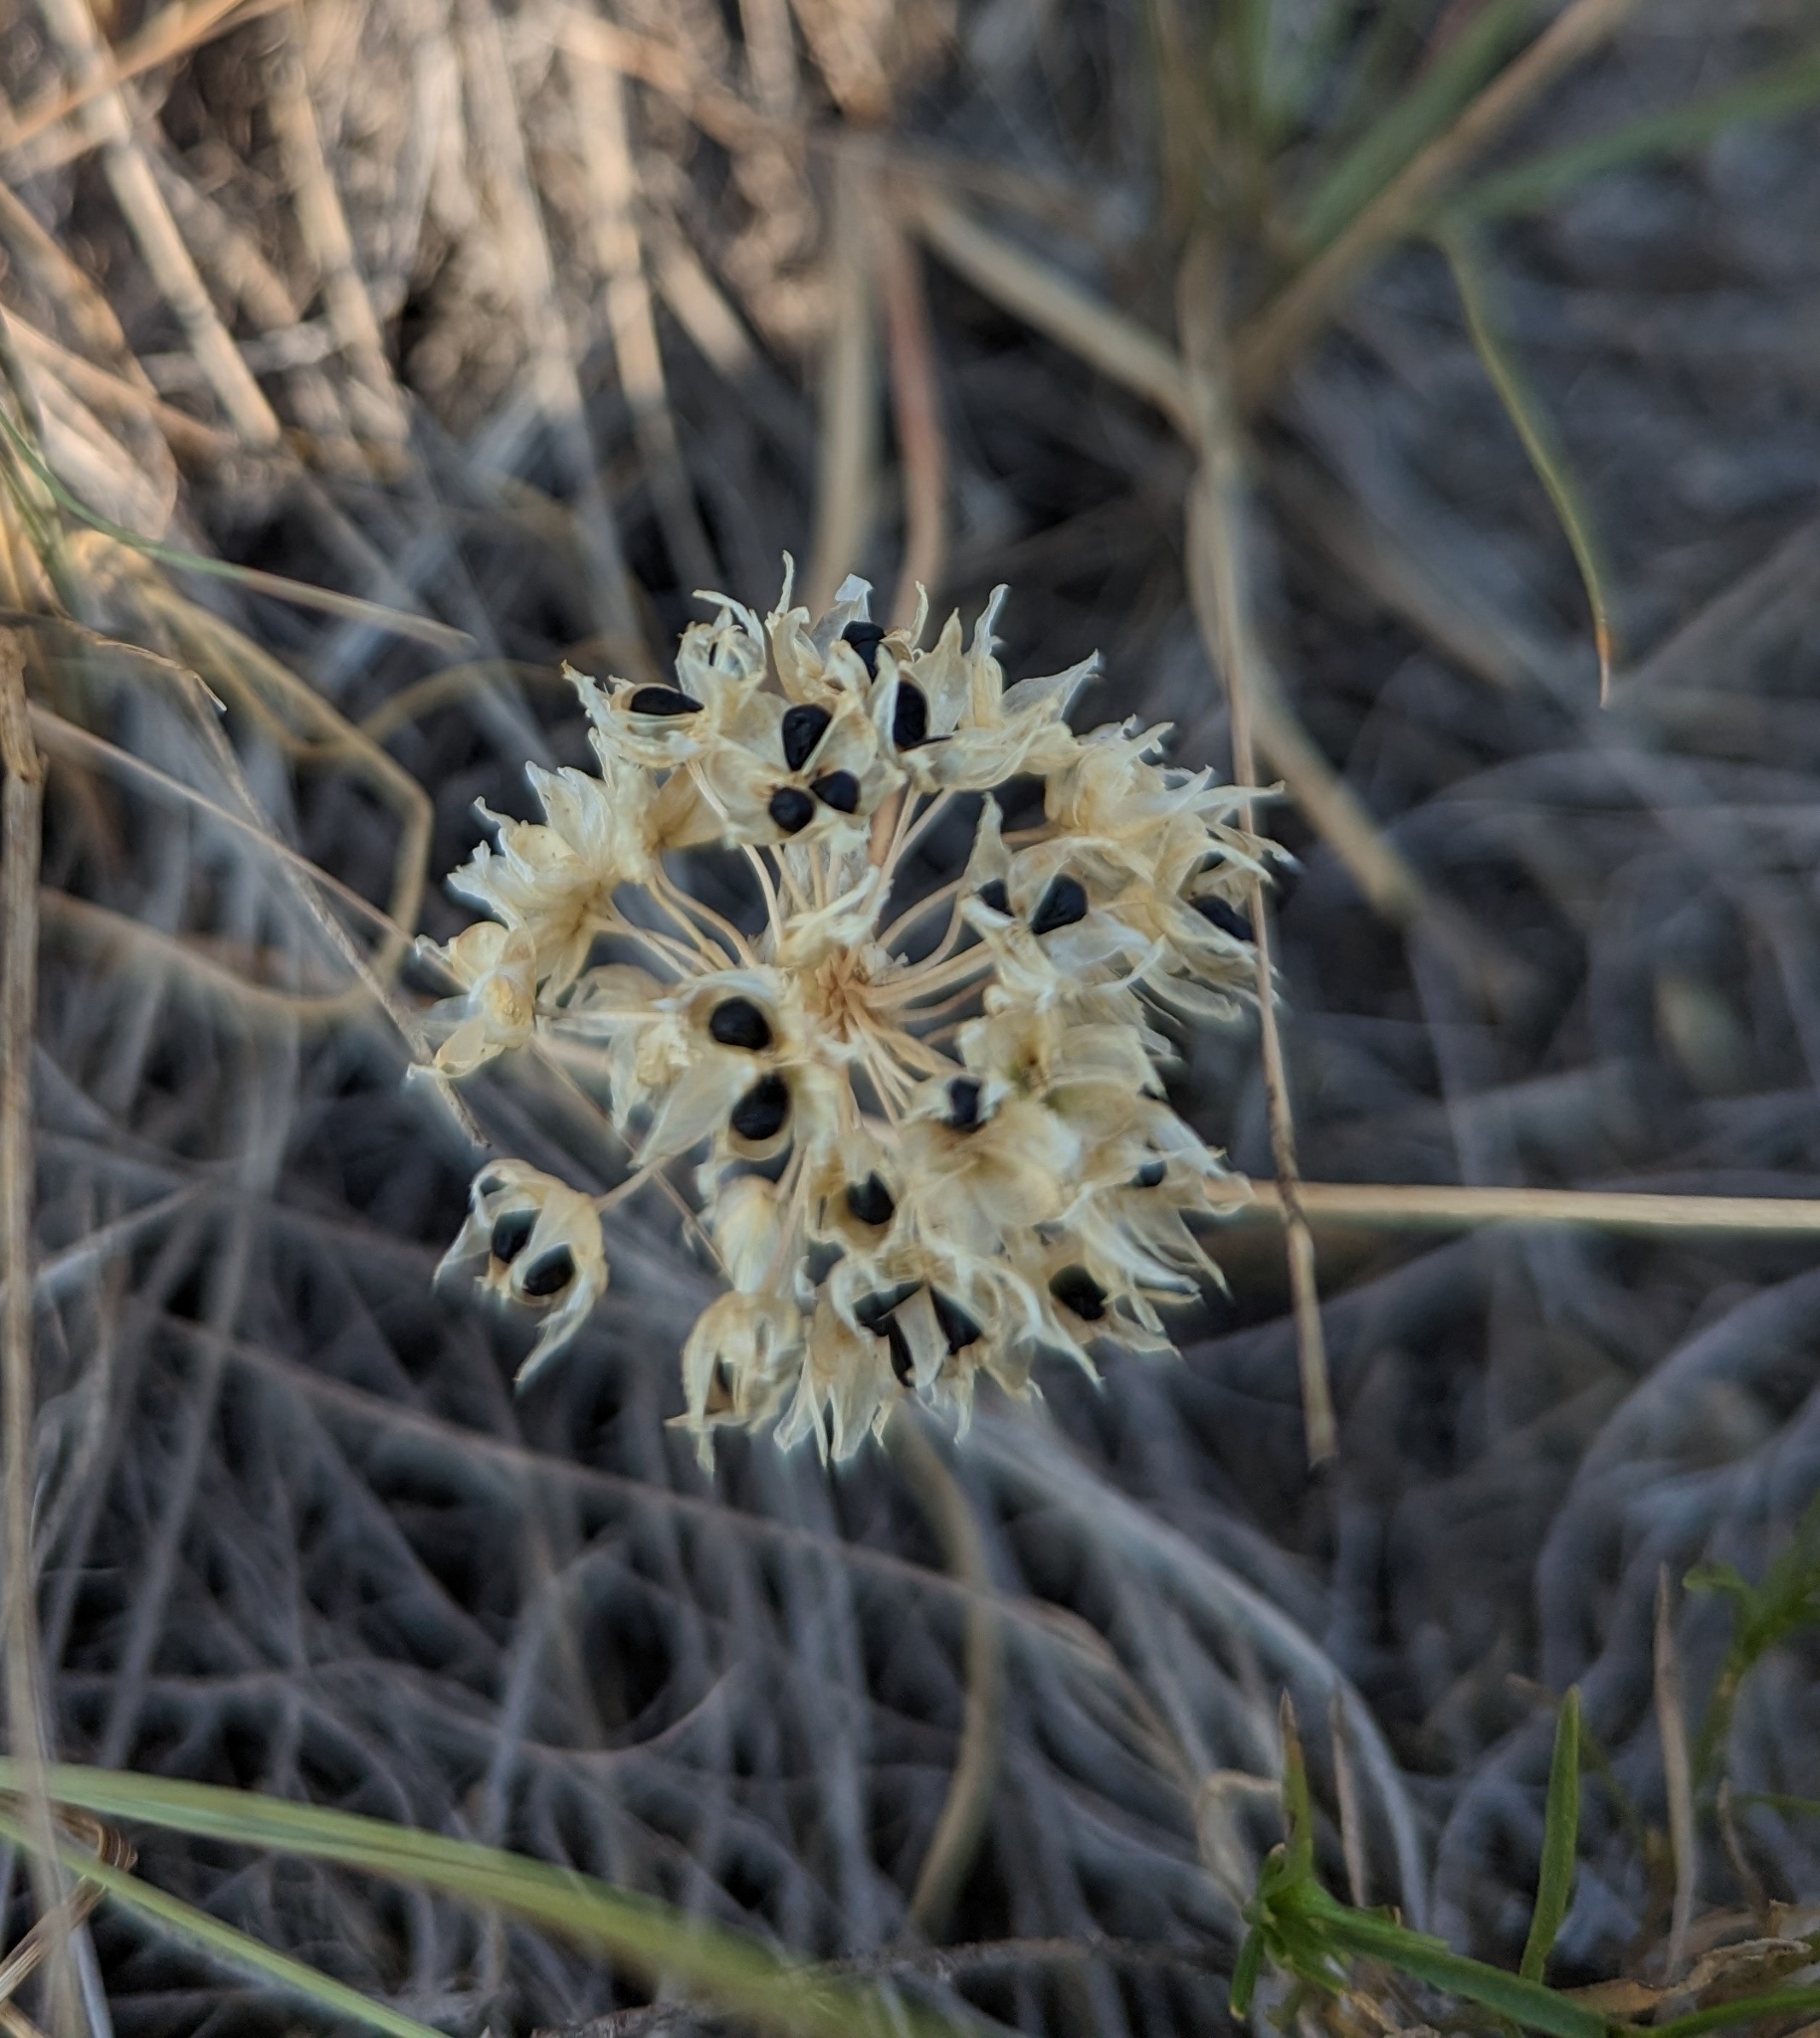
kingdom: Plantae
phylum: Tracheophyta
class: Liliopsida
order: Asparagales
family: Amaryllidaceae
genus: Allium
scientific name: Allium textile
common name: Prairie onion
